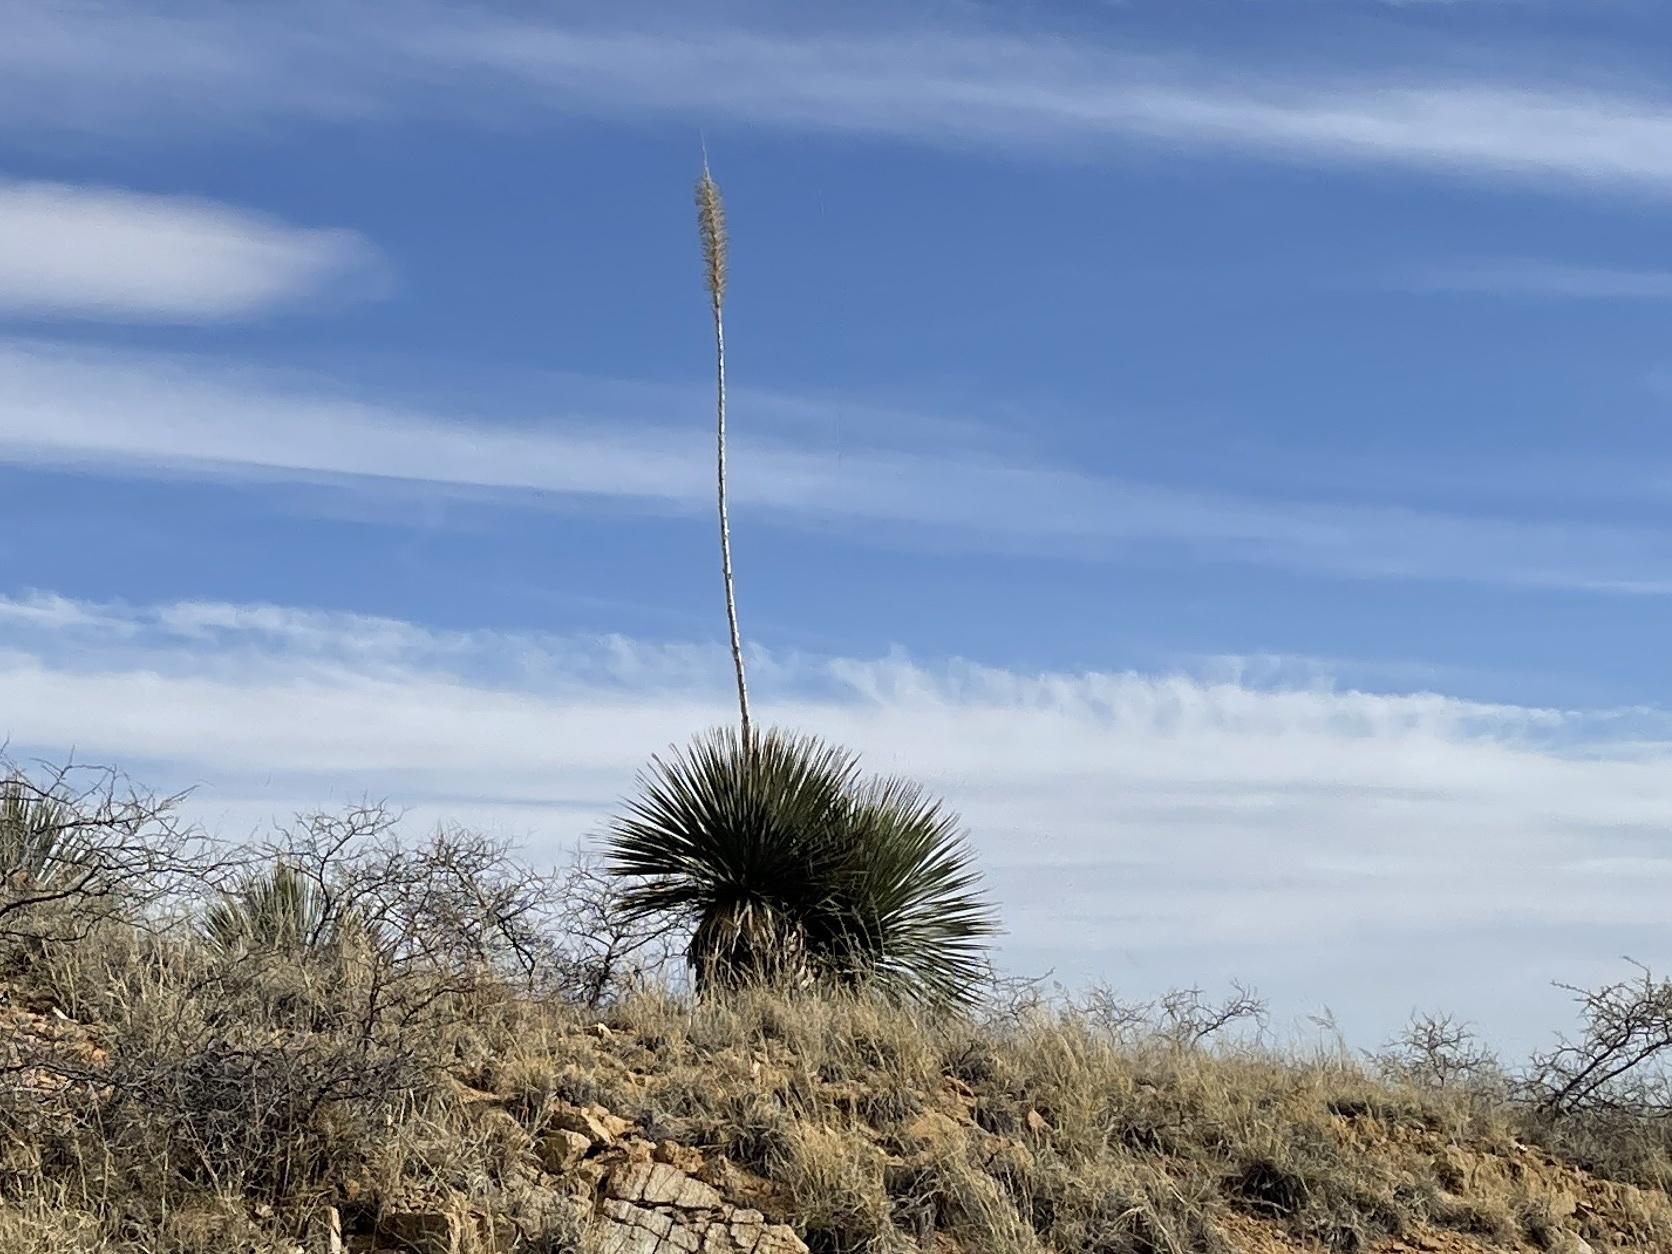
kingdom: Plantae
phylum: Tracheophyta
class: Liliopsida
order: Asparagales
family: Asparagaceae
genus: Dasylirion
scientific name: Dasylirion wheeleri
